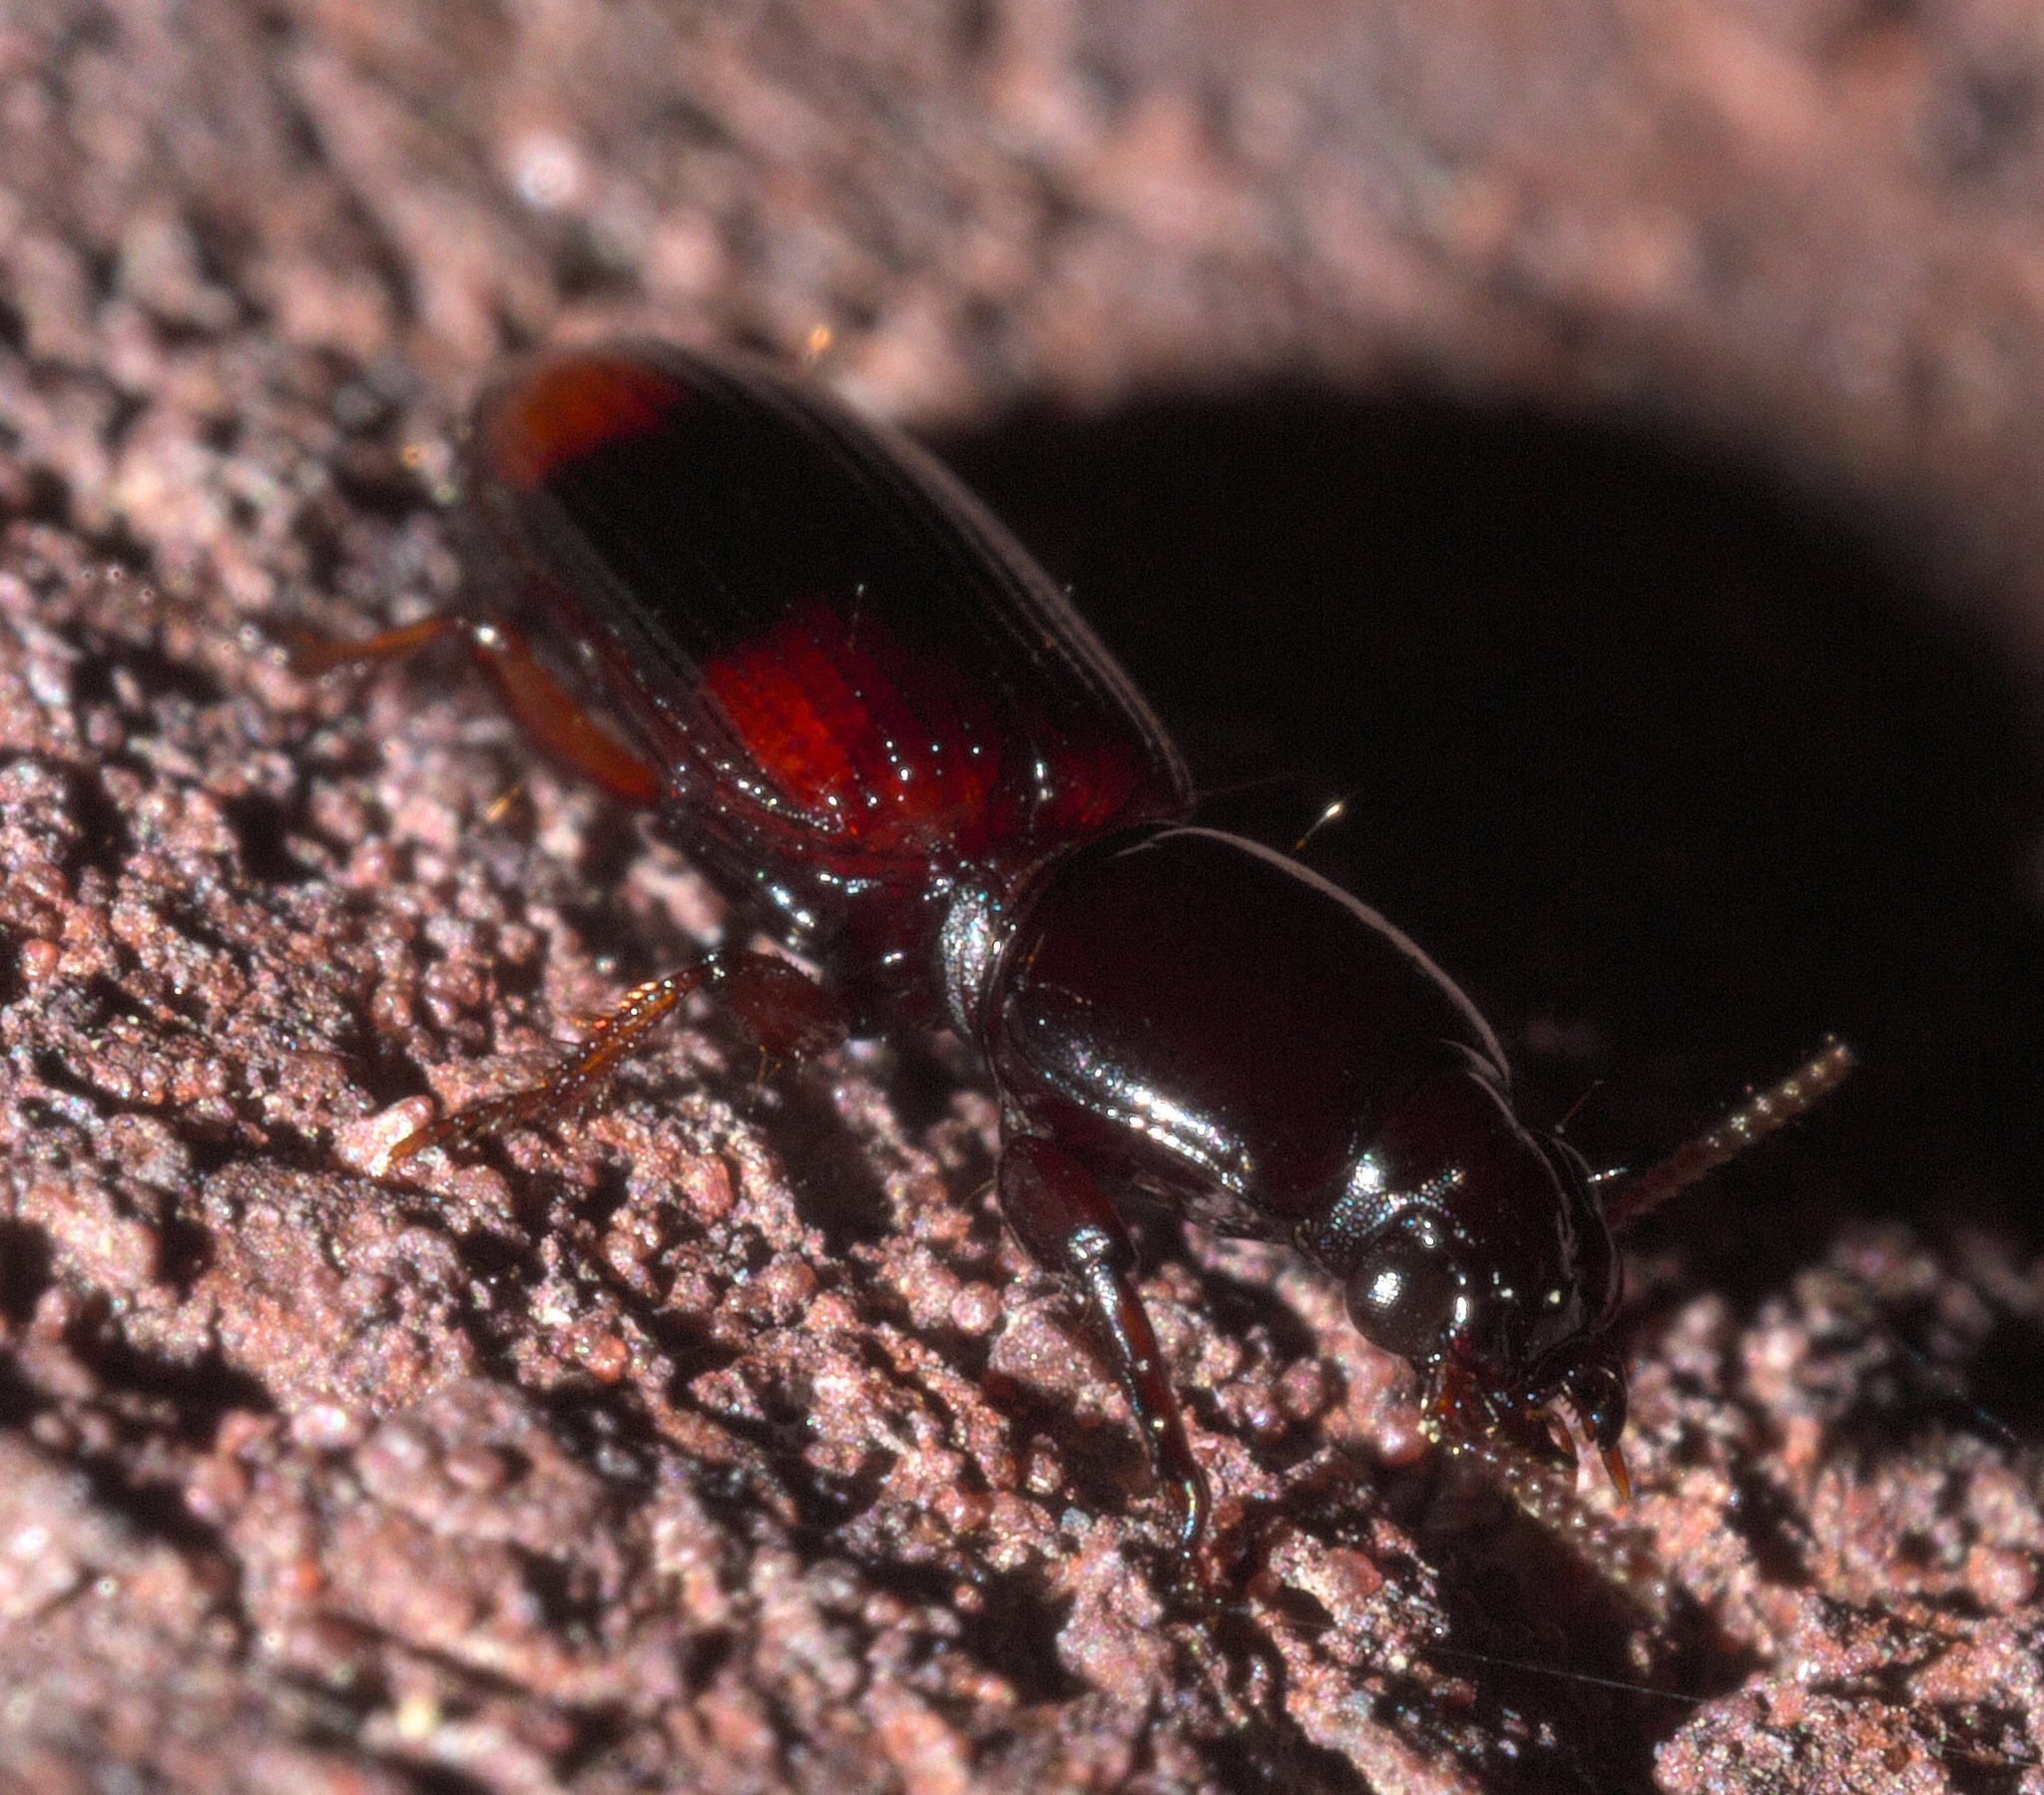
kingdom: Animalia
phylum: Arthropoda
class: Insecta
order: Coleoptera
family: Carabidae
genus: Clivina
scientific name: Clivina bipustulata
